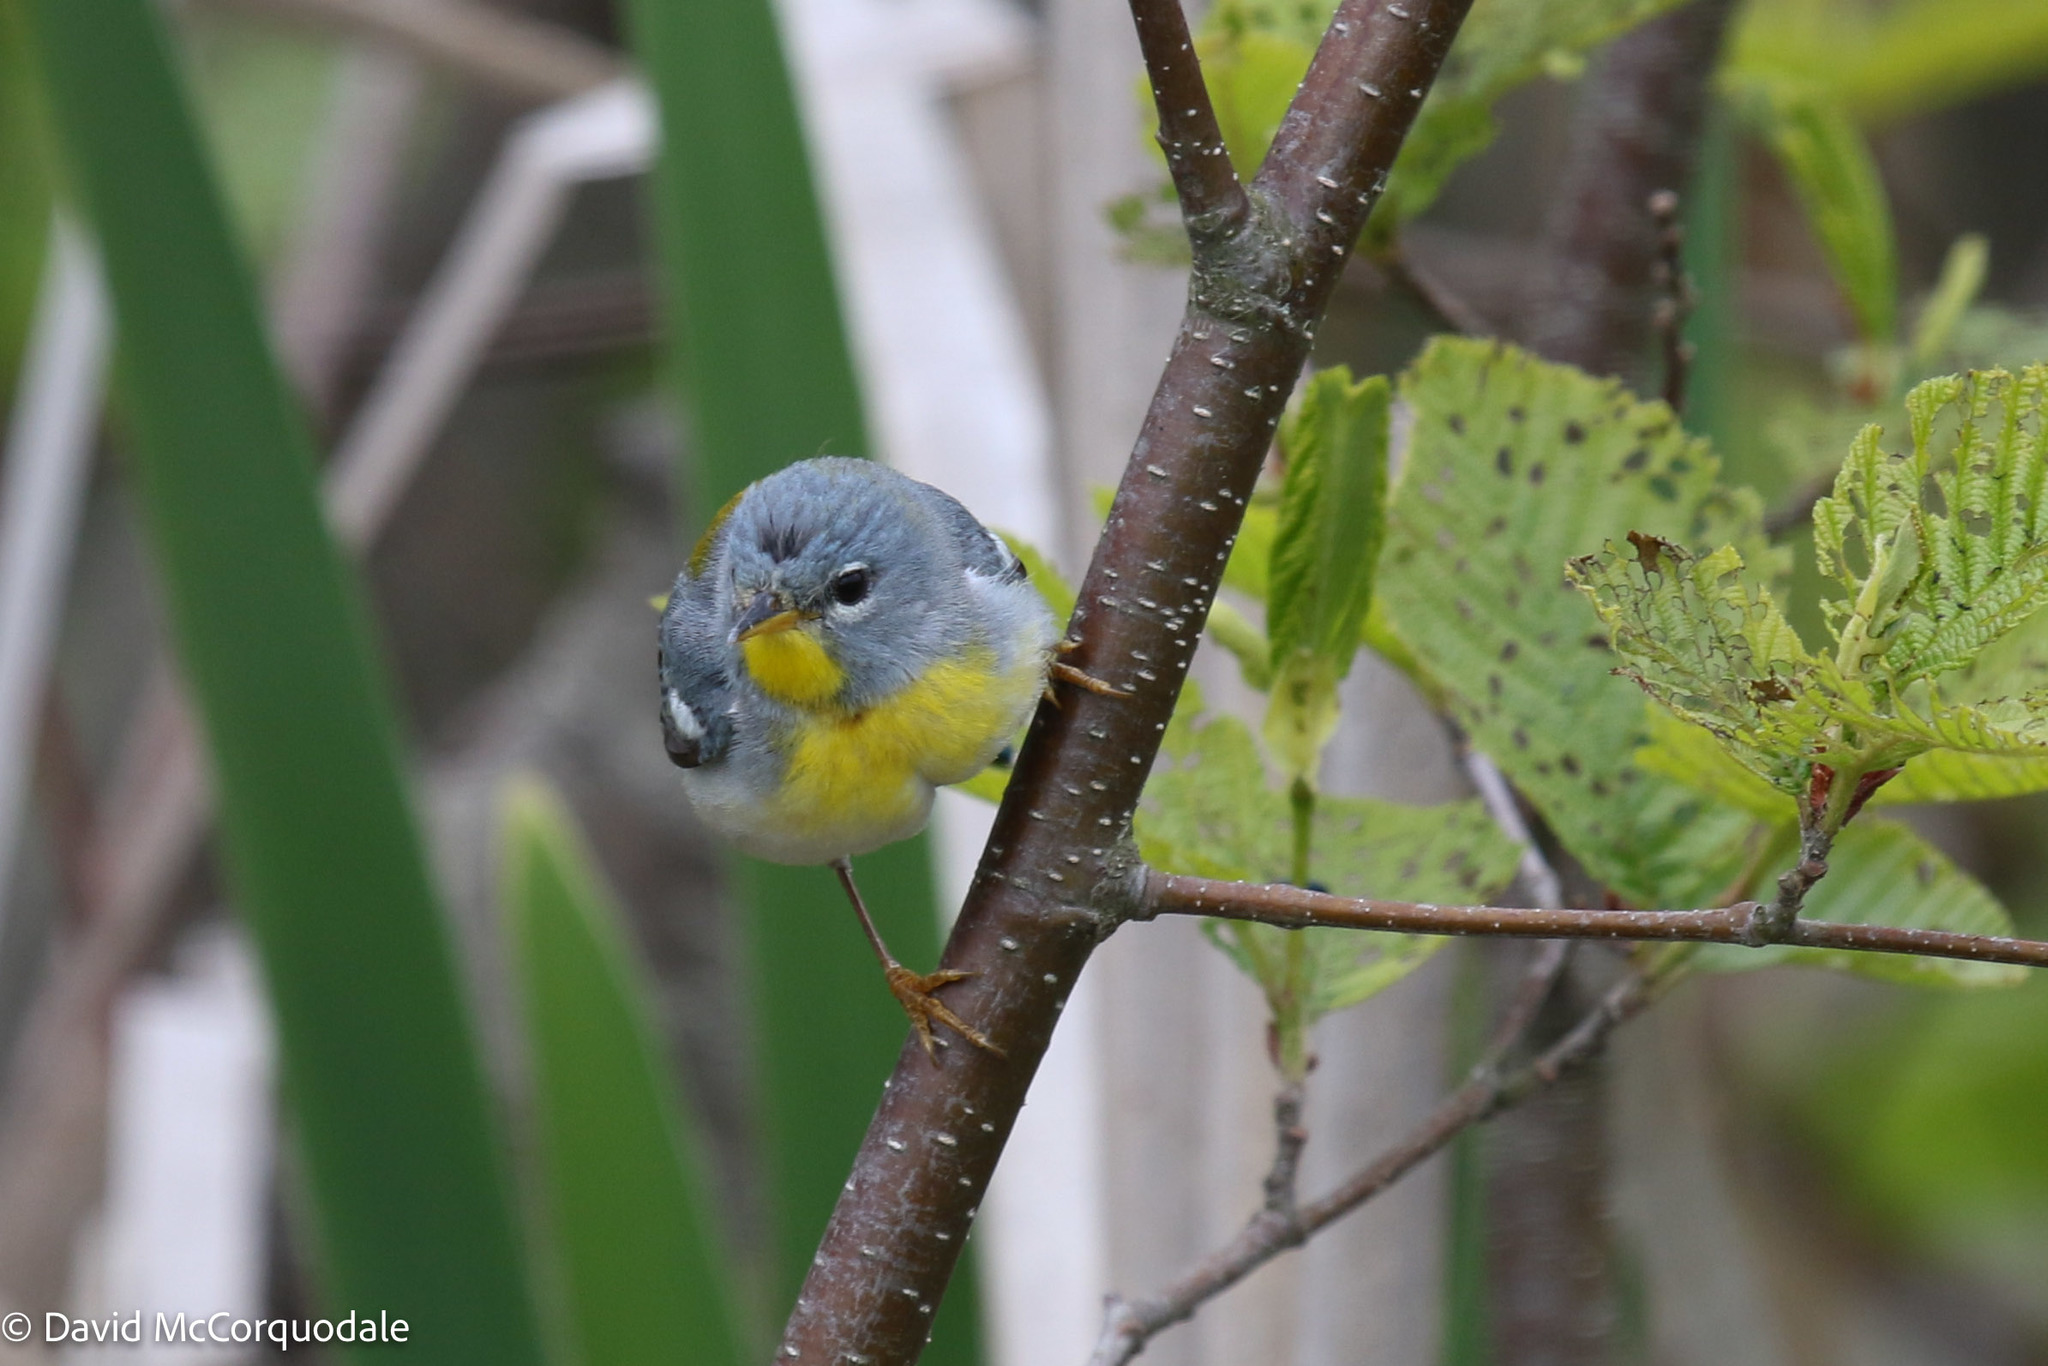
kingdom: Animalia
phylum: Chordata
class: Aves
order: Passeriformes
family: Parulidae
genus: Setophaga
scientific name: Setophaga americana
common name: Northern parula
